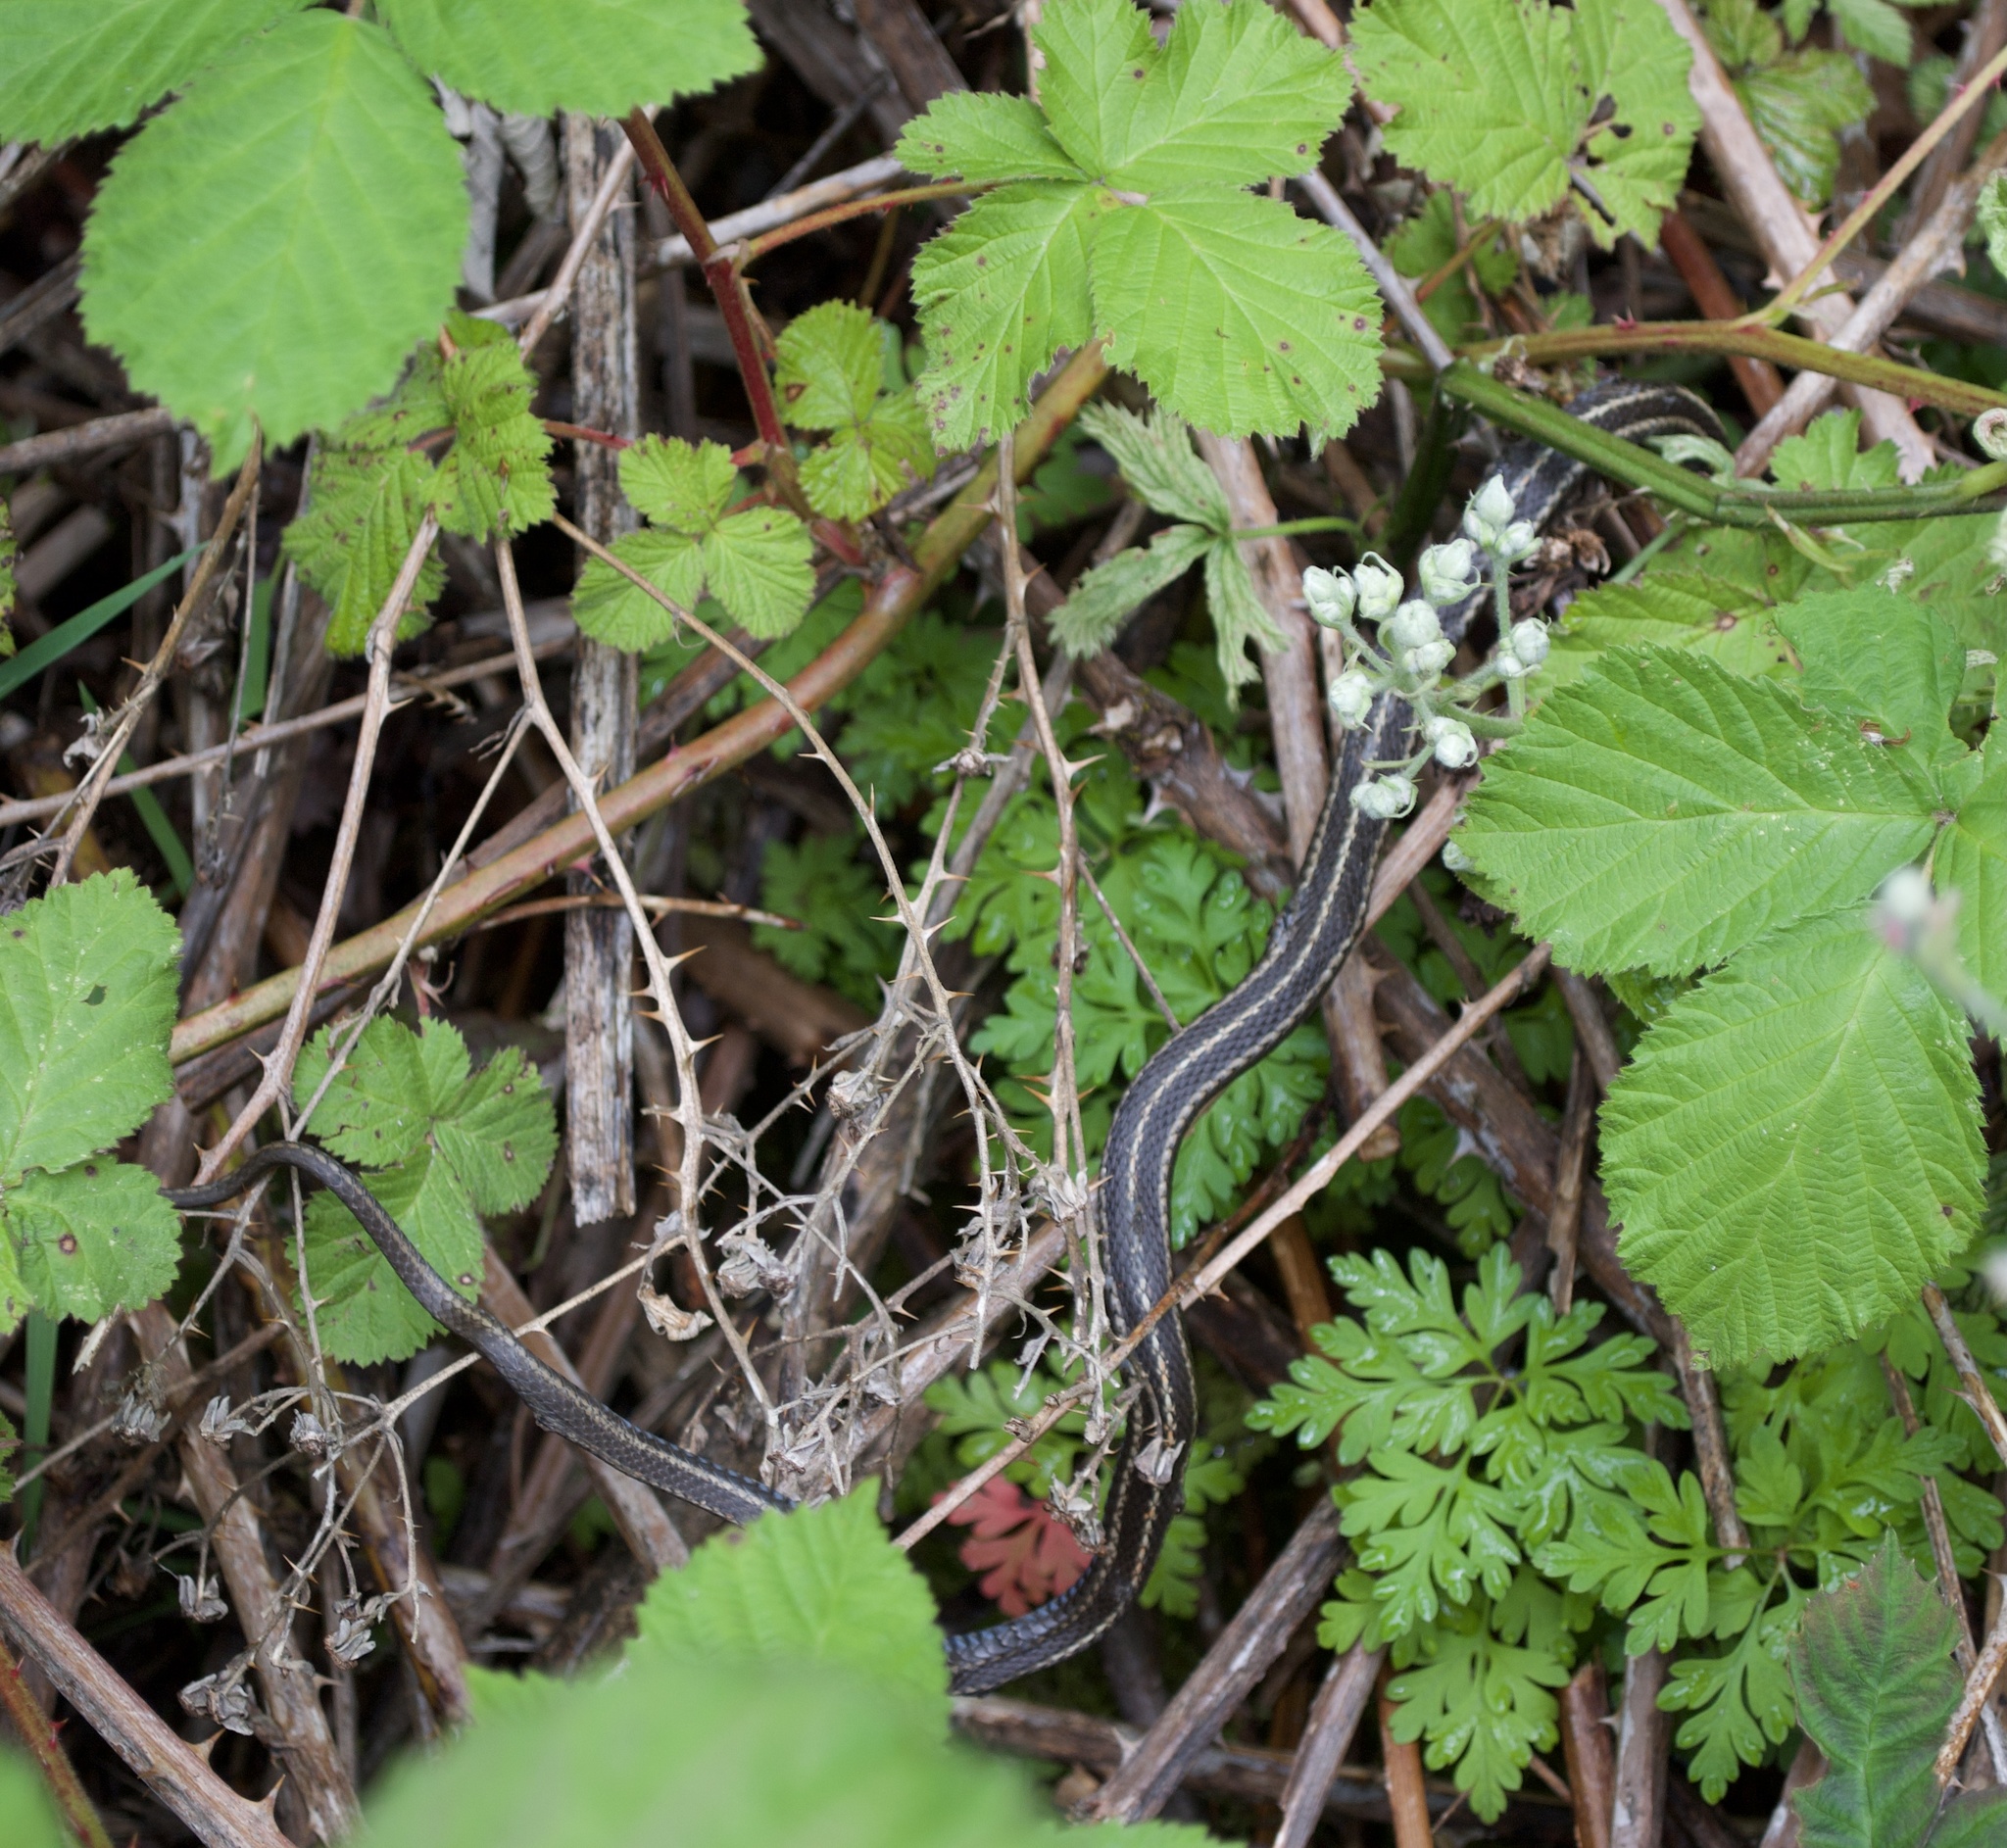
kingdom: Animalia
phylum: Chordata
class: Squamata
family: Colubridae
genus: Thamnophis
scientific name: Thamnophis ordinoides
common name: Northwestern garter snake
